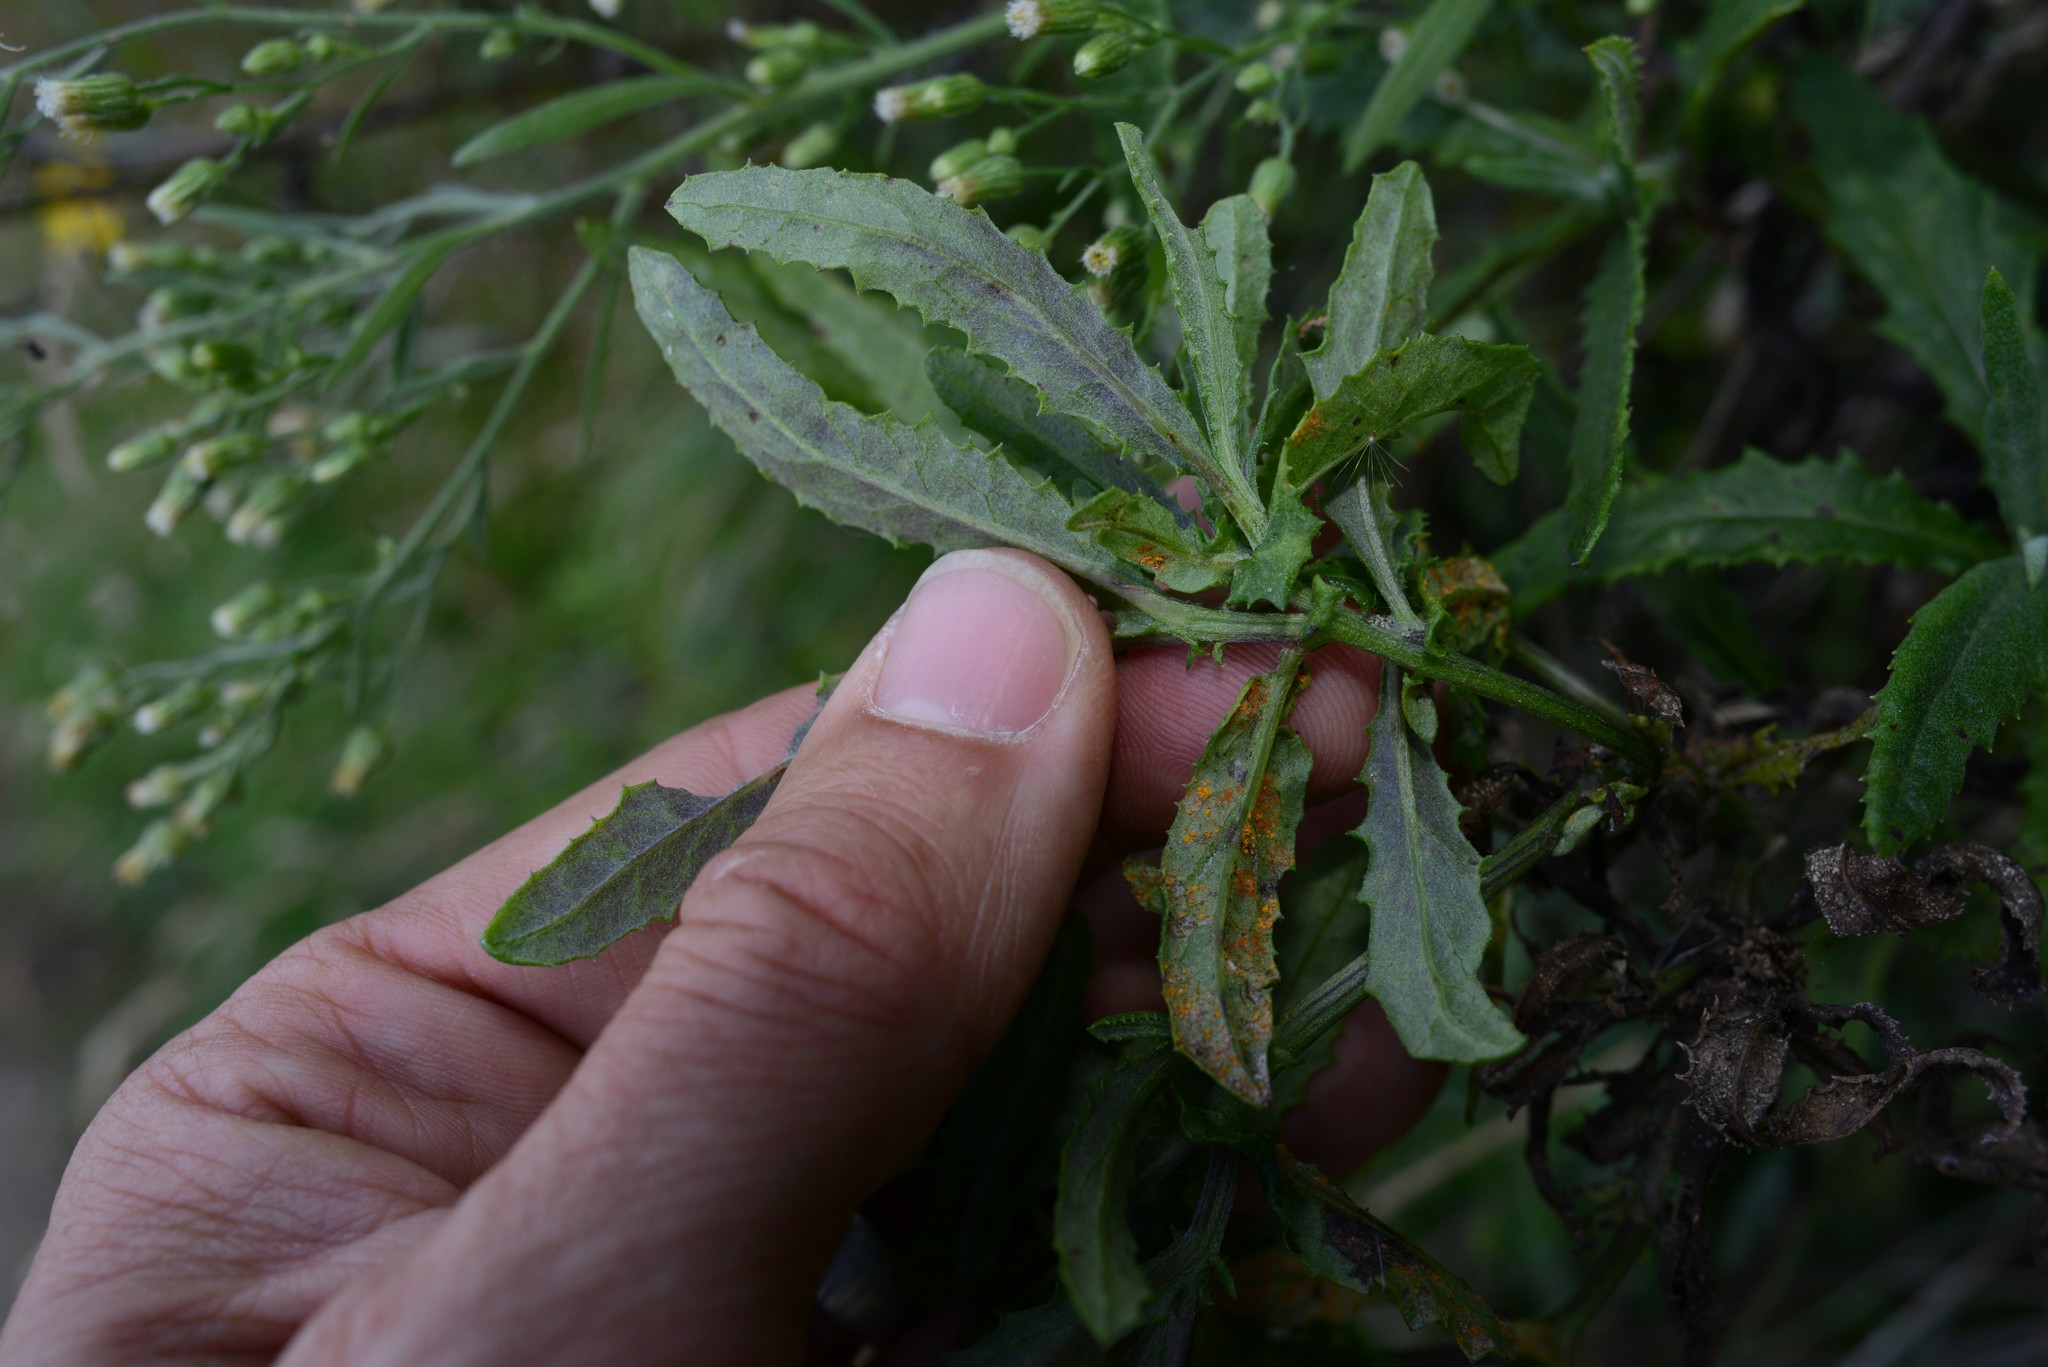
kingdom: Fungi
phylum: Basidiomycota
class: Pucciniomycetes
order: Pucciniales
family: Coleosporiaceae
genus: Coleosporium
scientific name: Coleosporium tussilaginis
